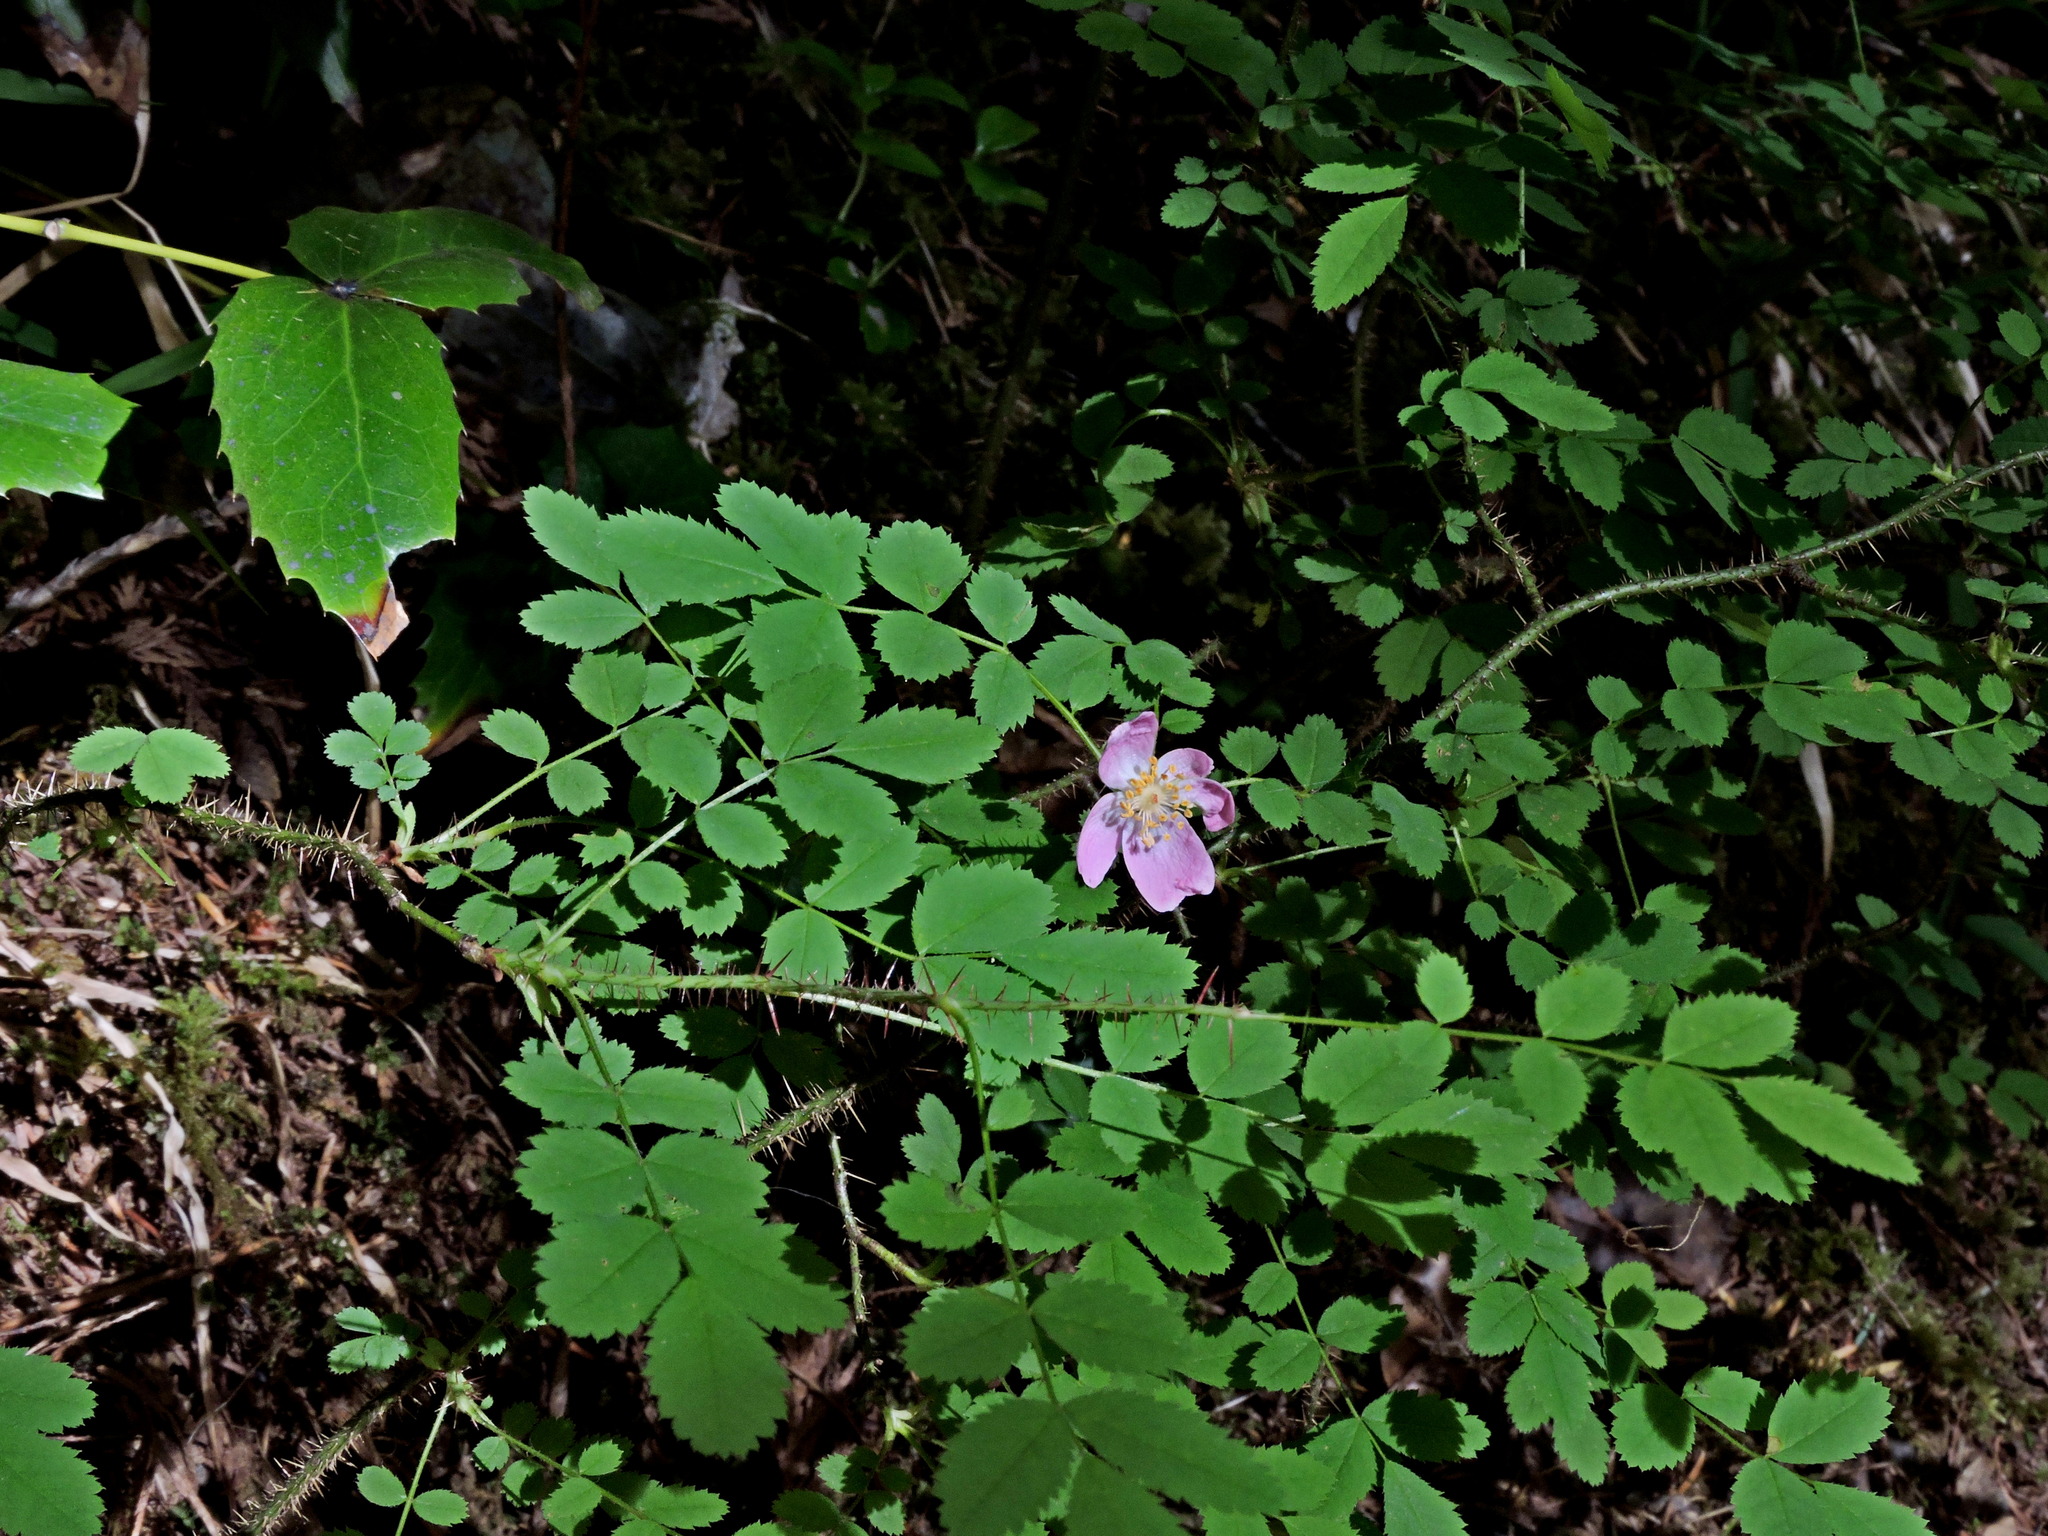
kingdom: Plantae
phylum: Tracheophyta
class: Magnoliopsida
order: Rosales
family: Rosaceae
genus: Rosa
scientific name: Rosa gymnocarpa
